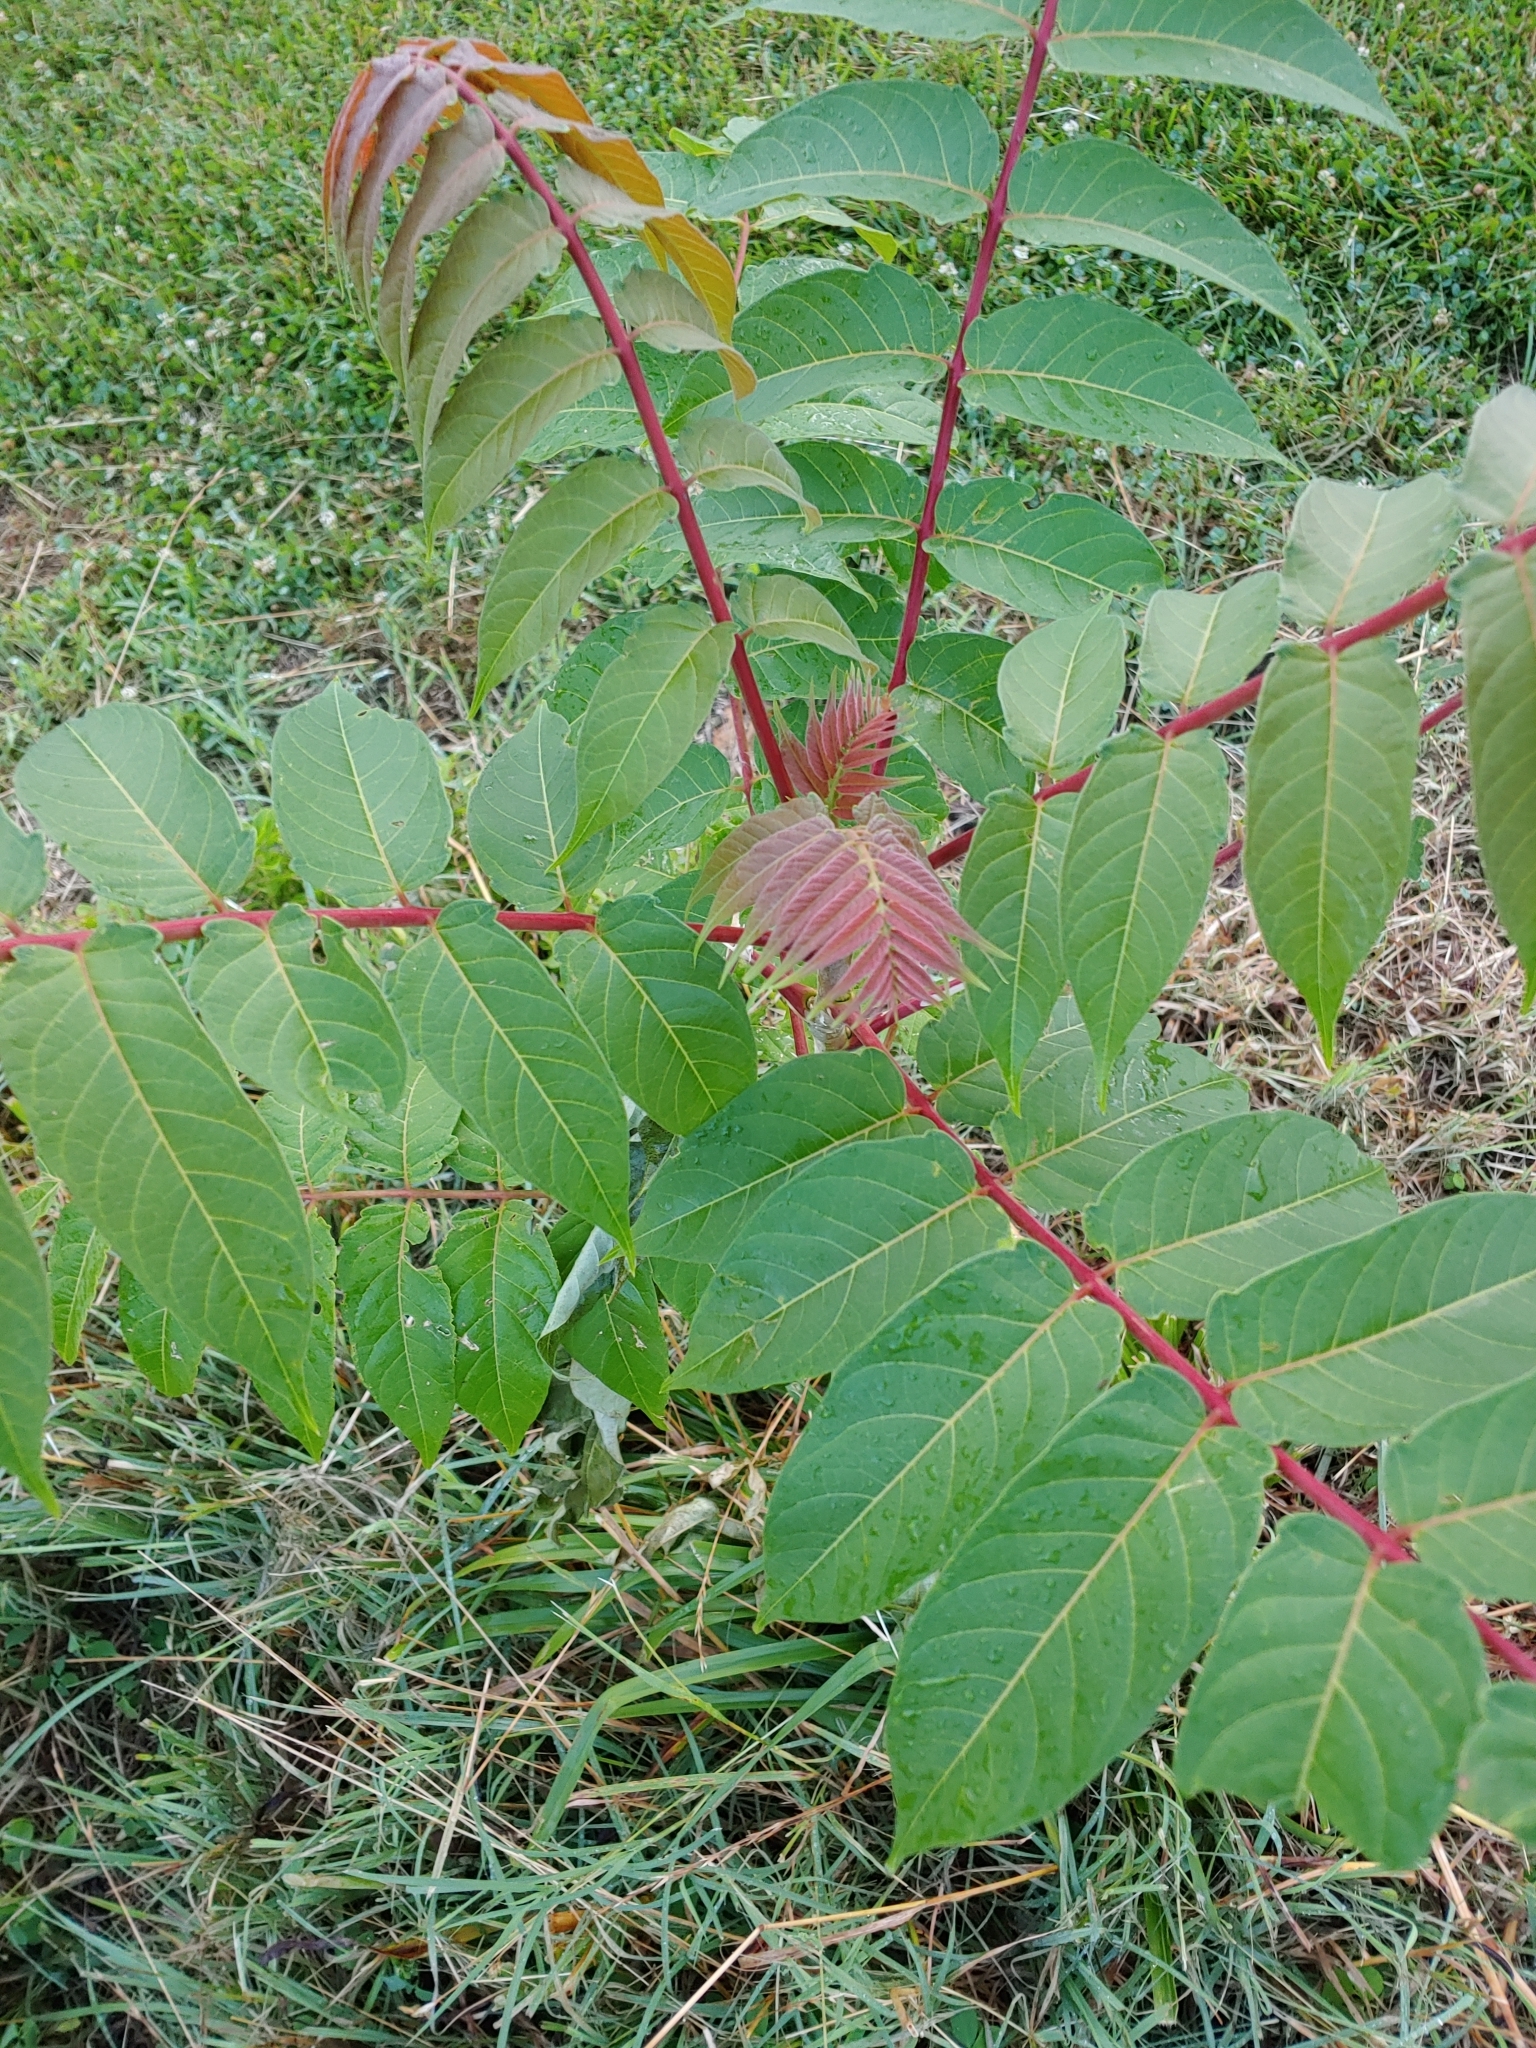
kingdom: Plantae
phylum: Tracheophyta
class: Magnoliopsida
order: Sapindales
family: Simaroubaceae
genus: Ailanthus
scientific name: Ailanthus altissima
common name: Tree-of-heaven
